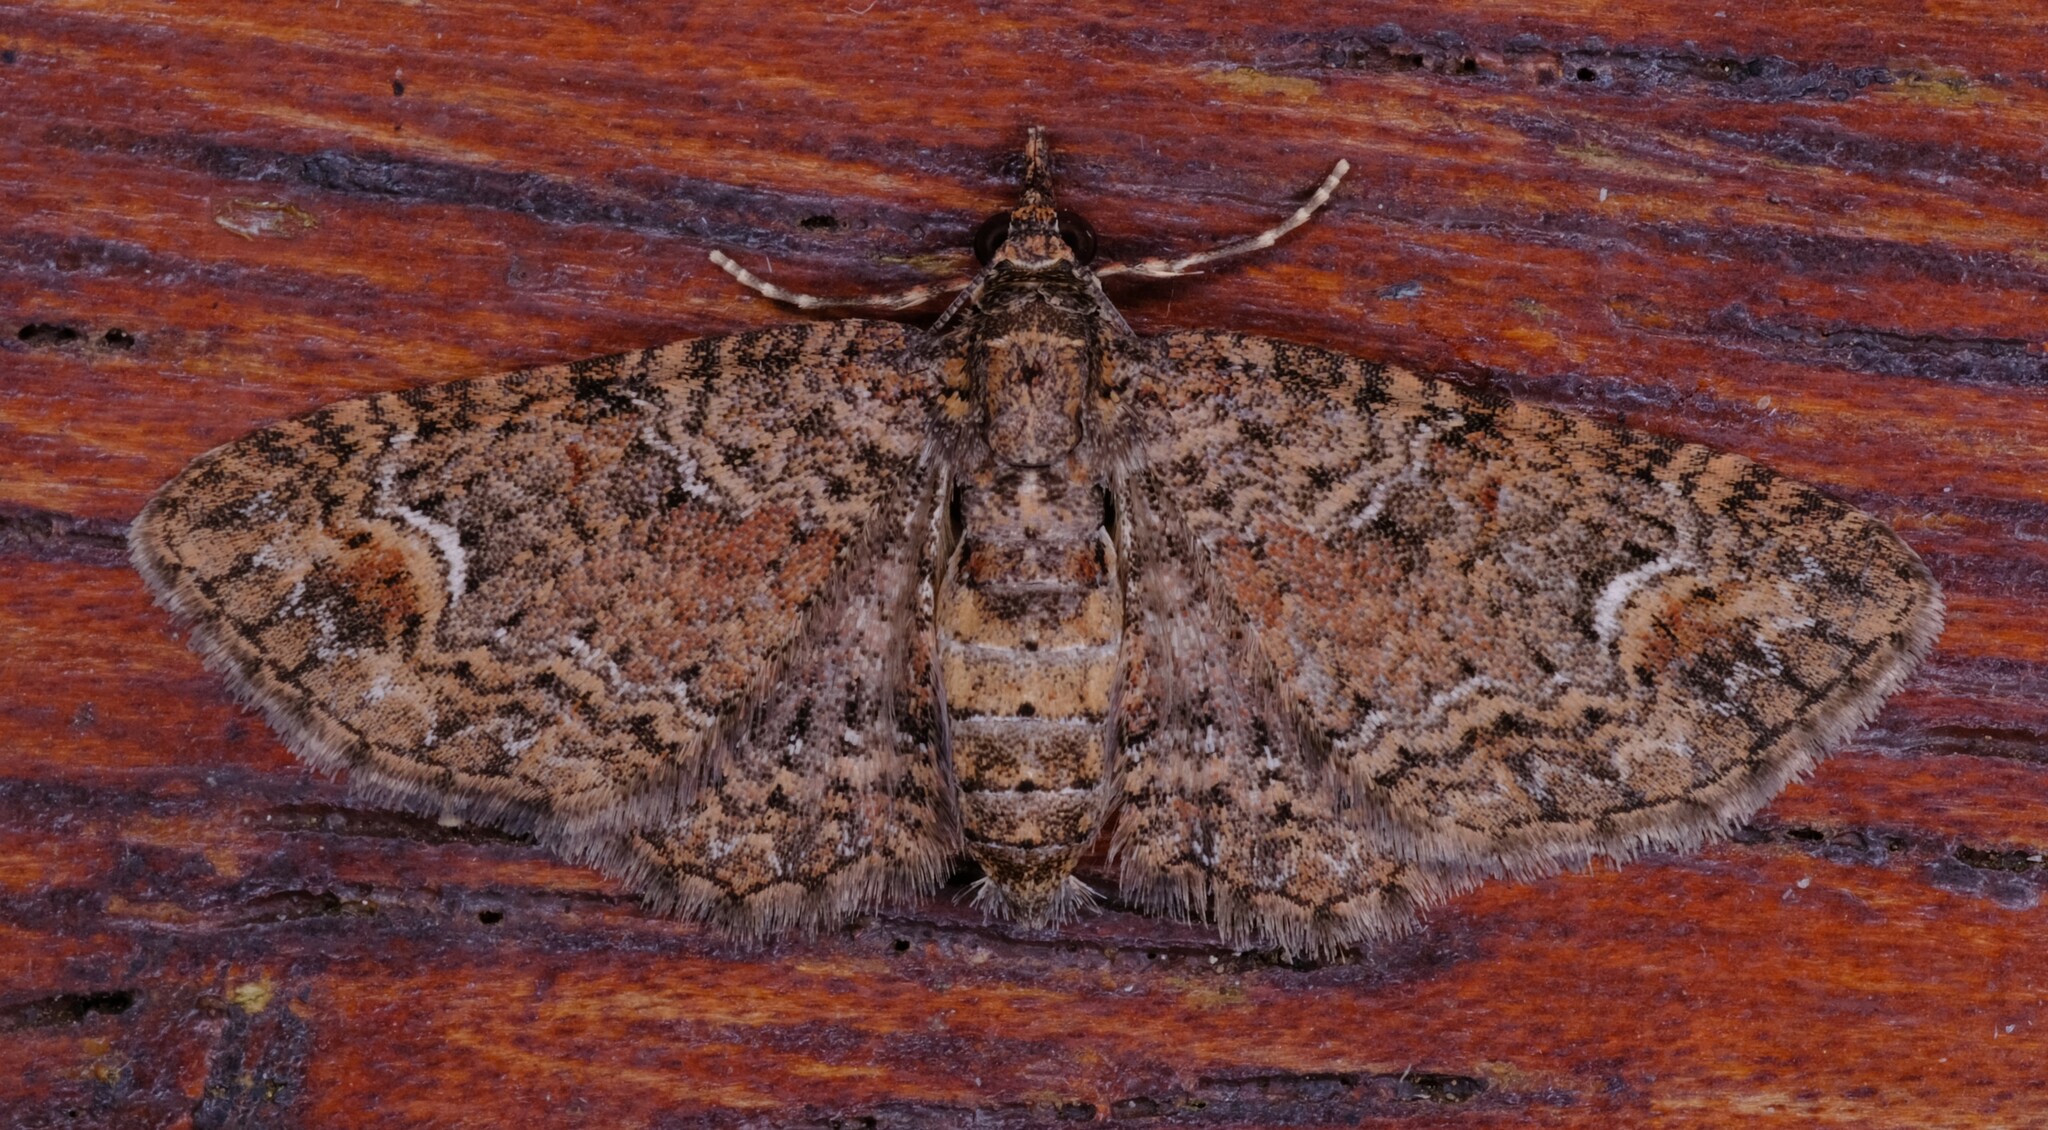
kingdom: Animalia
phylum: Arthropoda
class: Insecta
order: Lepidoptera
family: Geometridae
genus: Pasiphilodes
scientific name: Pasiphilodes testulata
